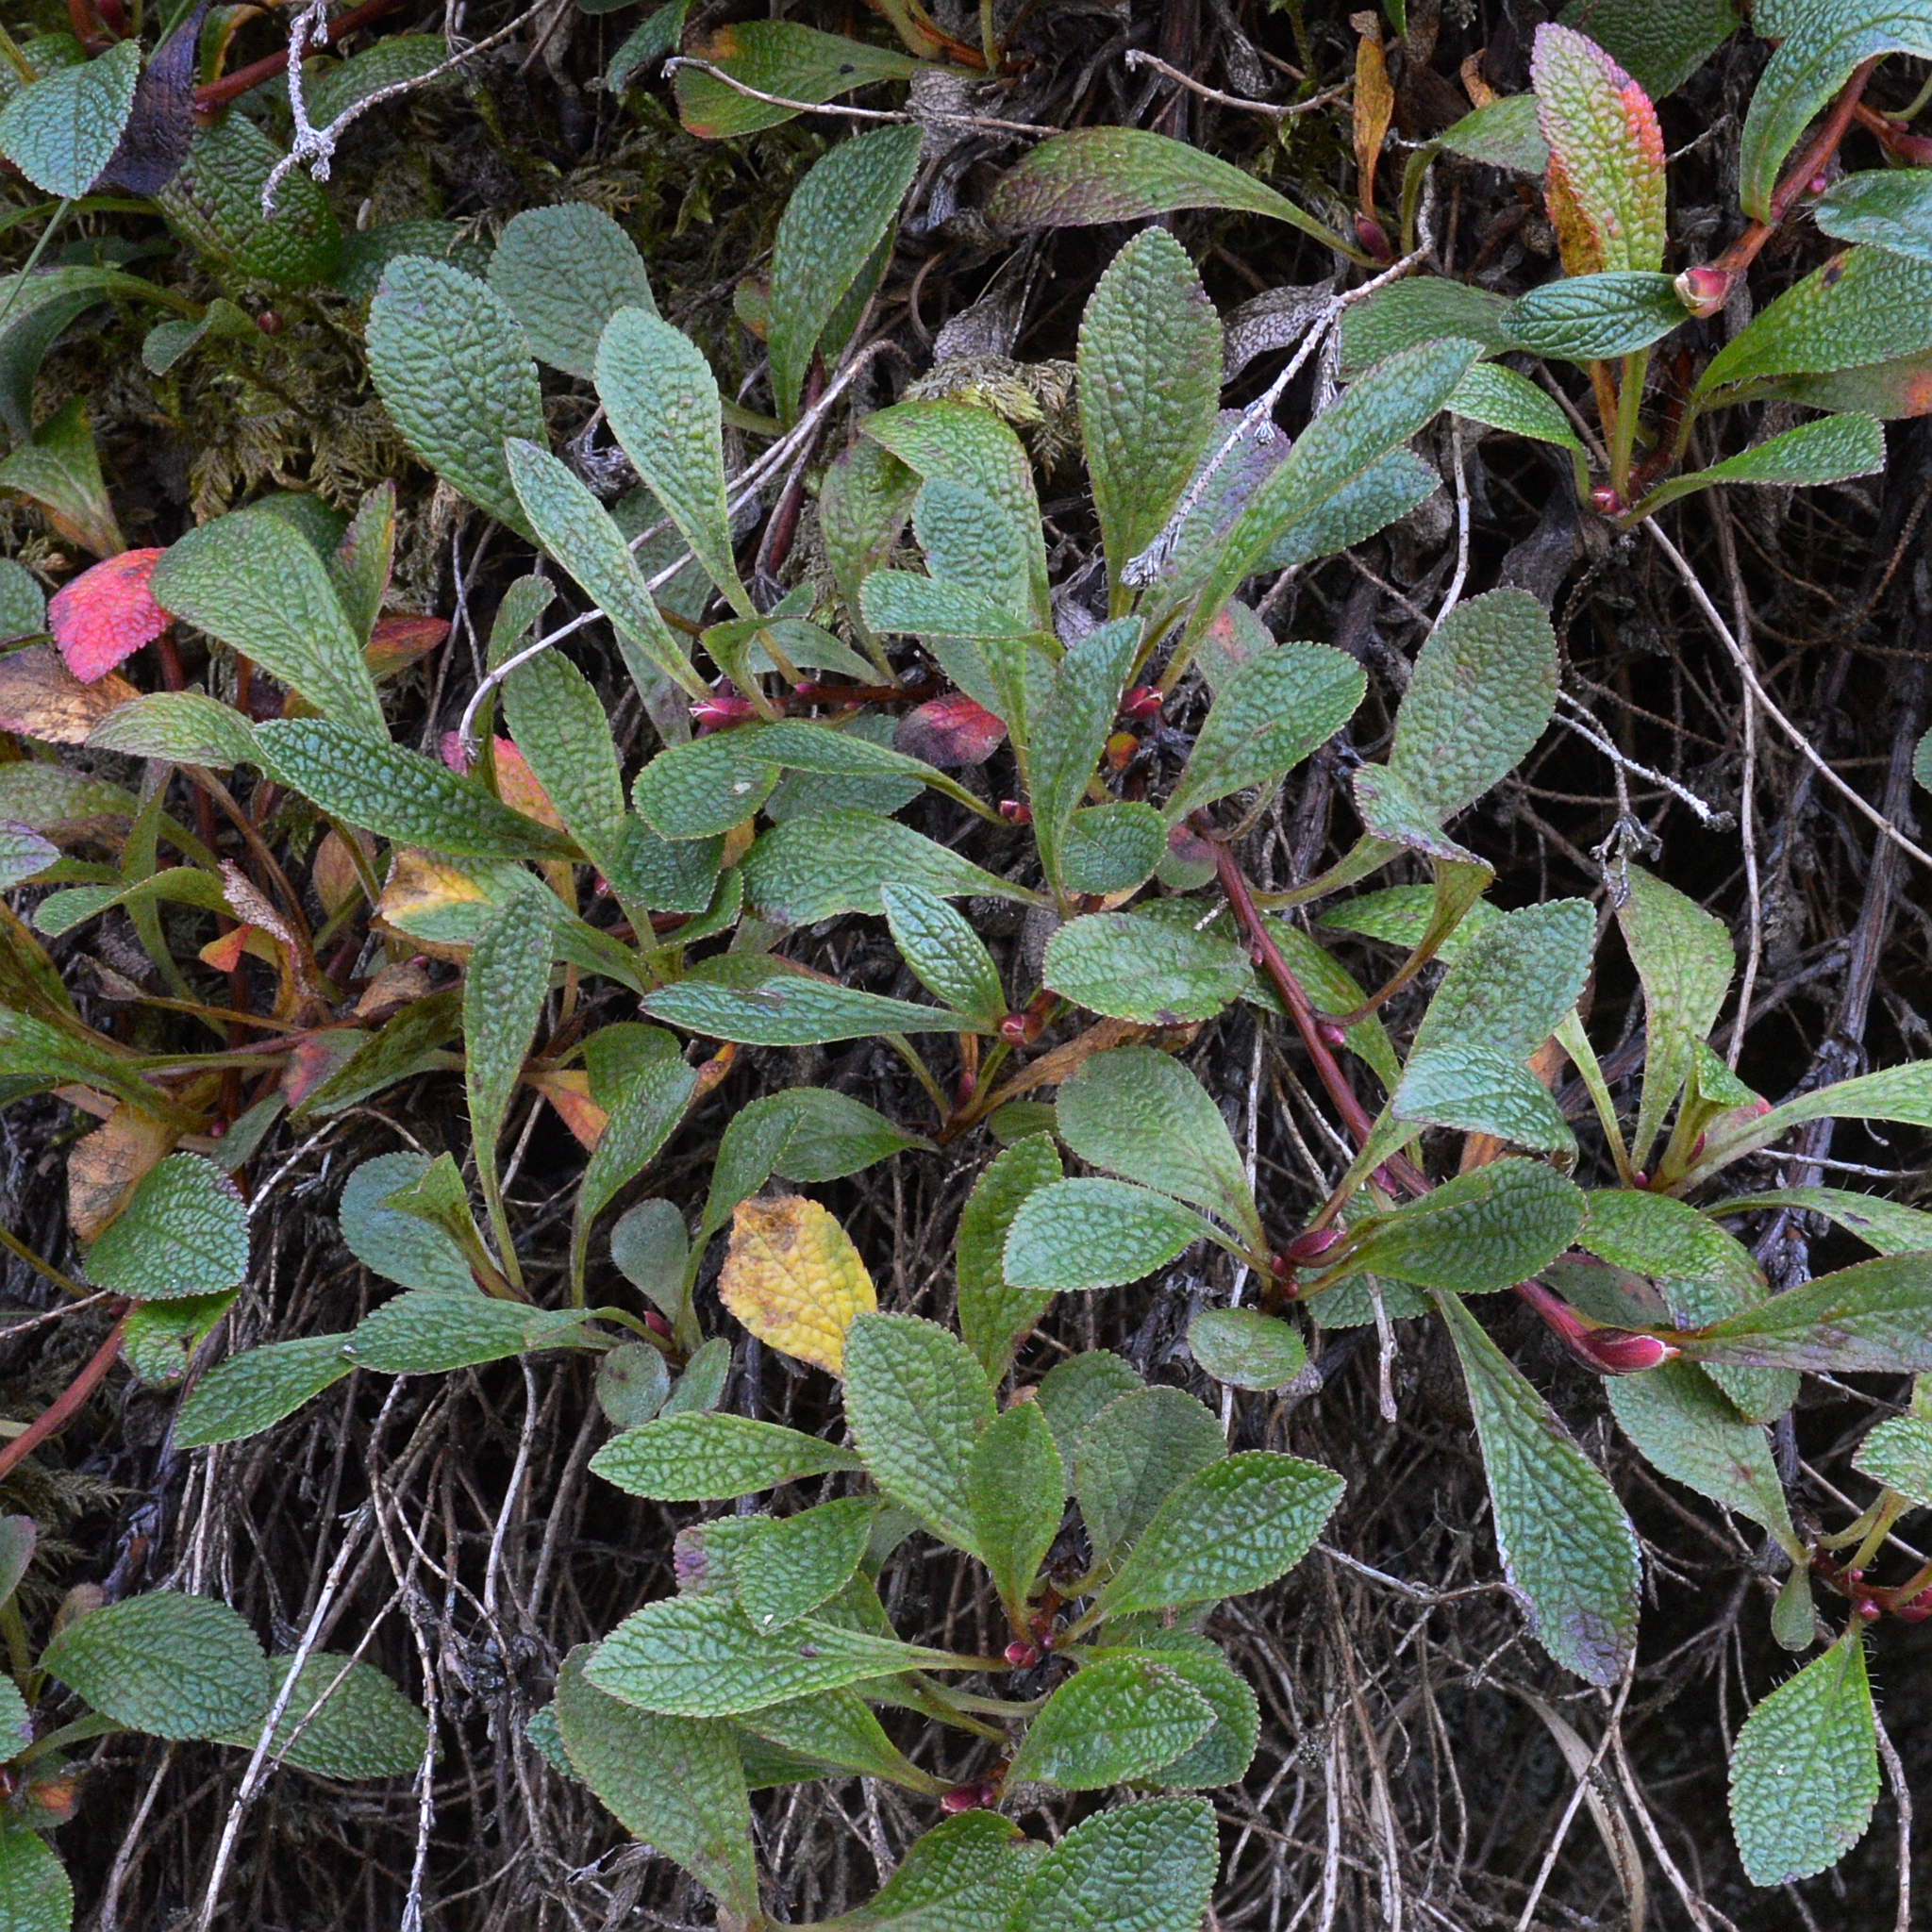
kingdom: Plantae
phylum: Tracheophyta
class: Magnoliopsida
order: Ericales
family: Ericaceae
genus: Arctostaphylos
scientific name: Arctostaphylos alpinus
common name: Alpine bearberry
